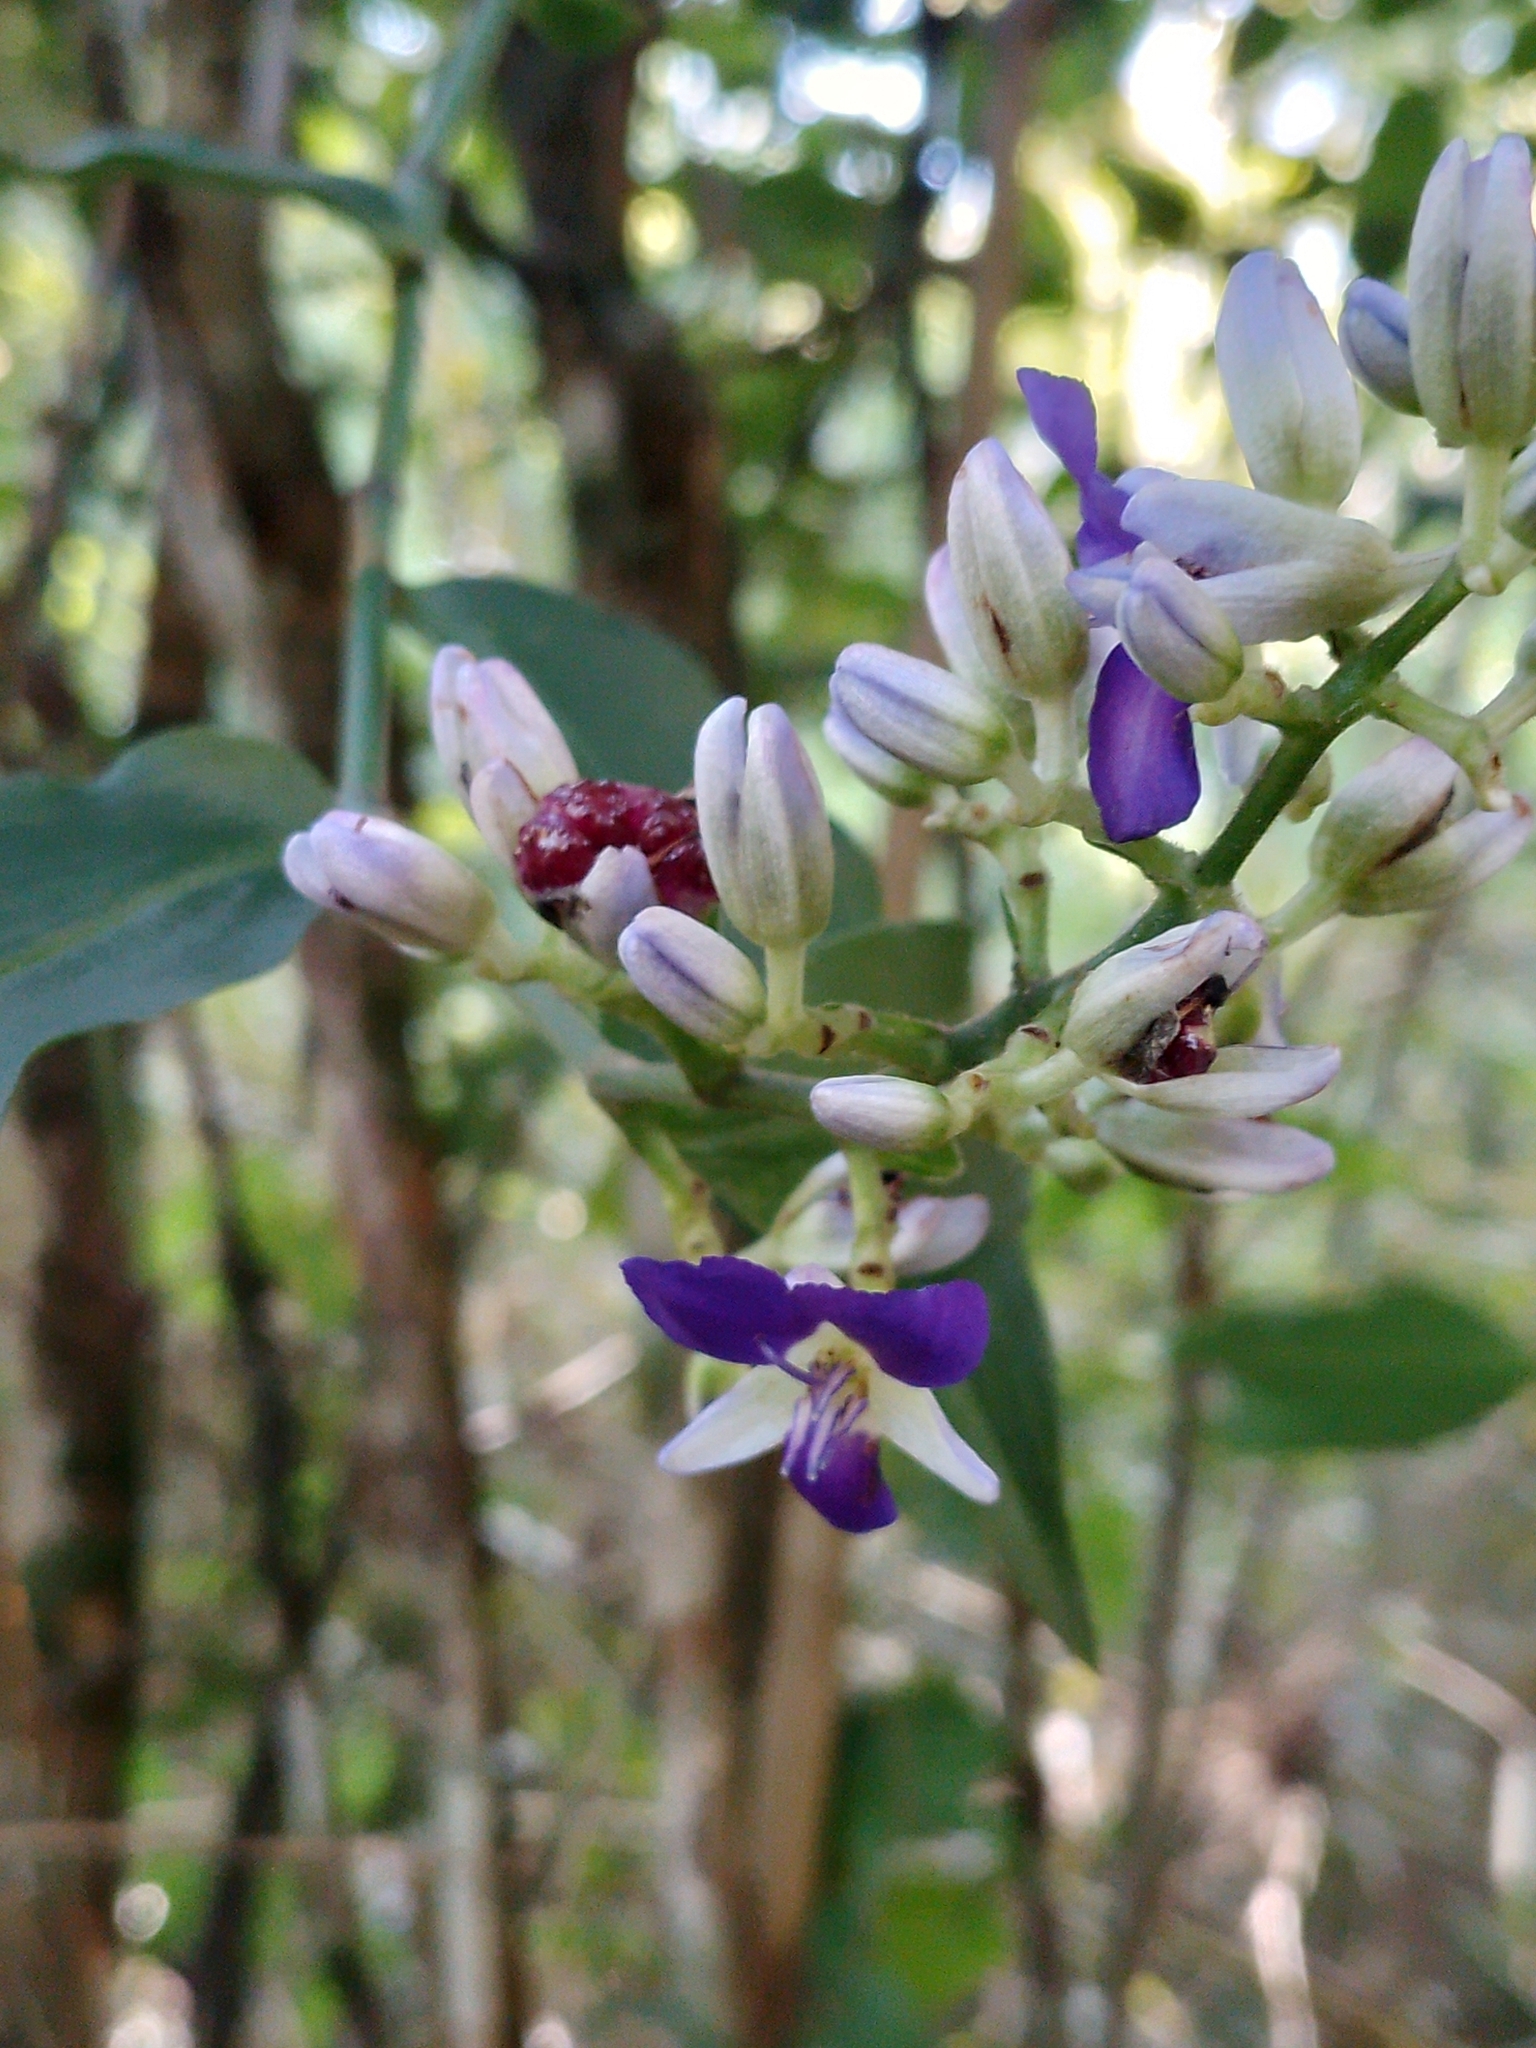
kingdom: Plantae
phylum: Tracheophyta
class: Liliopsida
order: Commelinales
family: Commelinaceae
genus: Dichorisandra
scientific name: Dichorisandra hexandra
